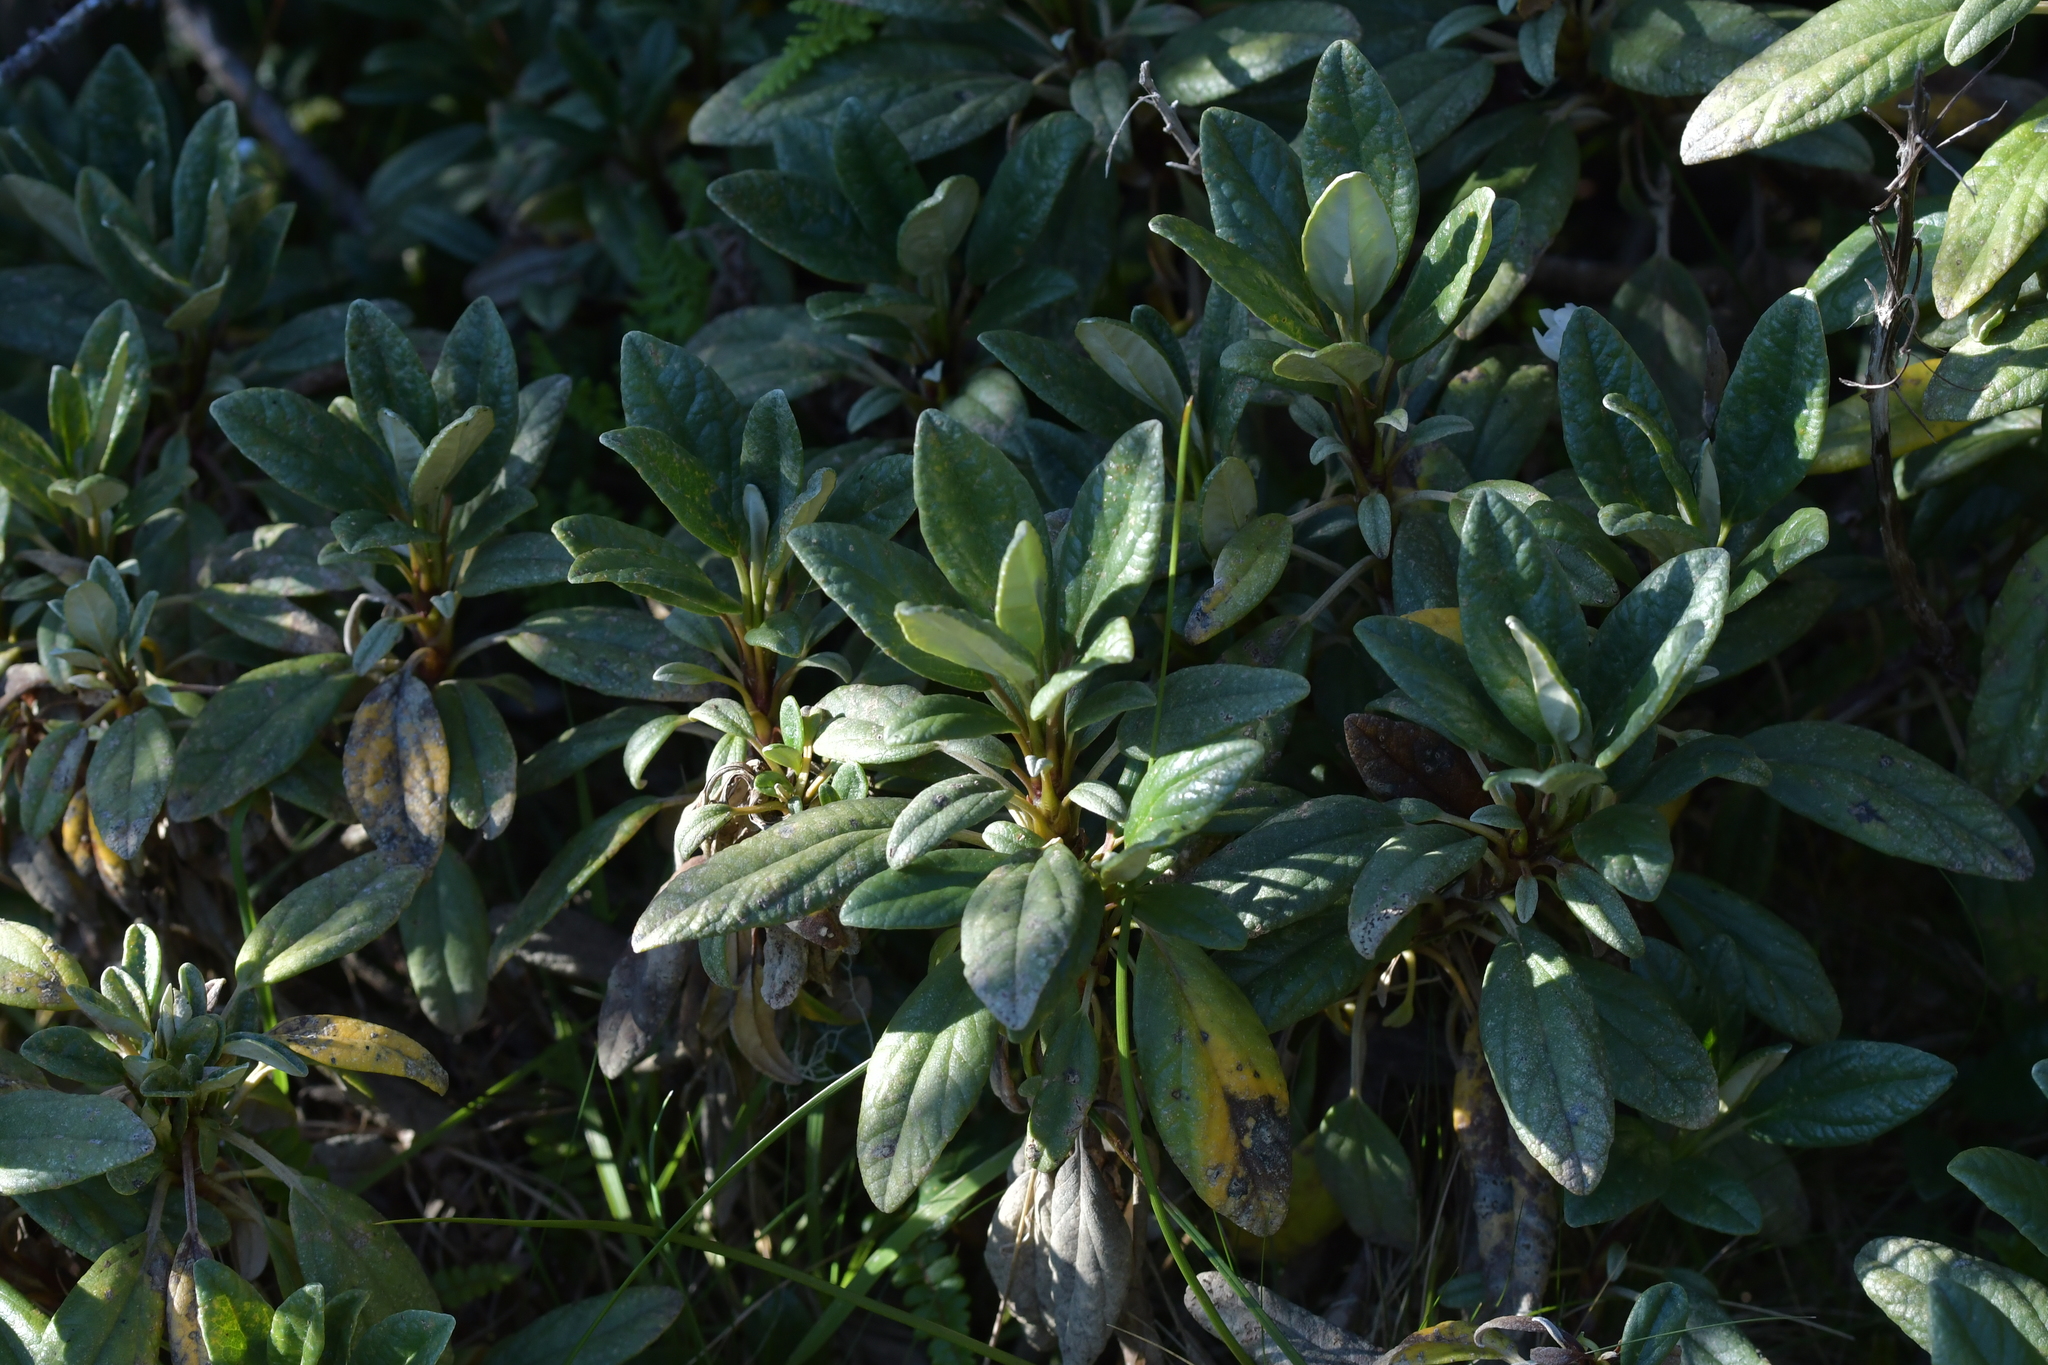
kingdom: Plantae
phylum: Tracheophyta
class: Magnoliopsida
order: Asterales
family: Asteraceae
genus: Brachyglottis
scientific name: Brachyglottis revoluta
